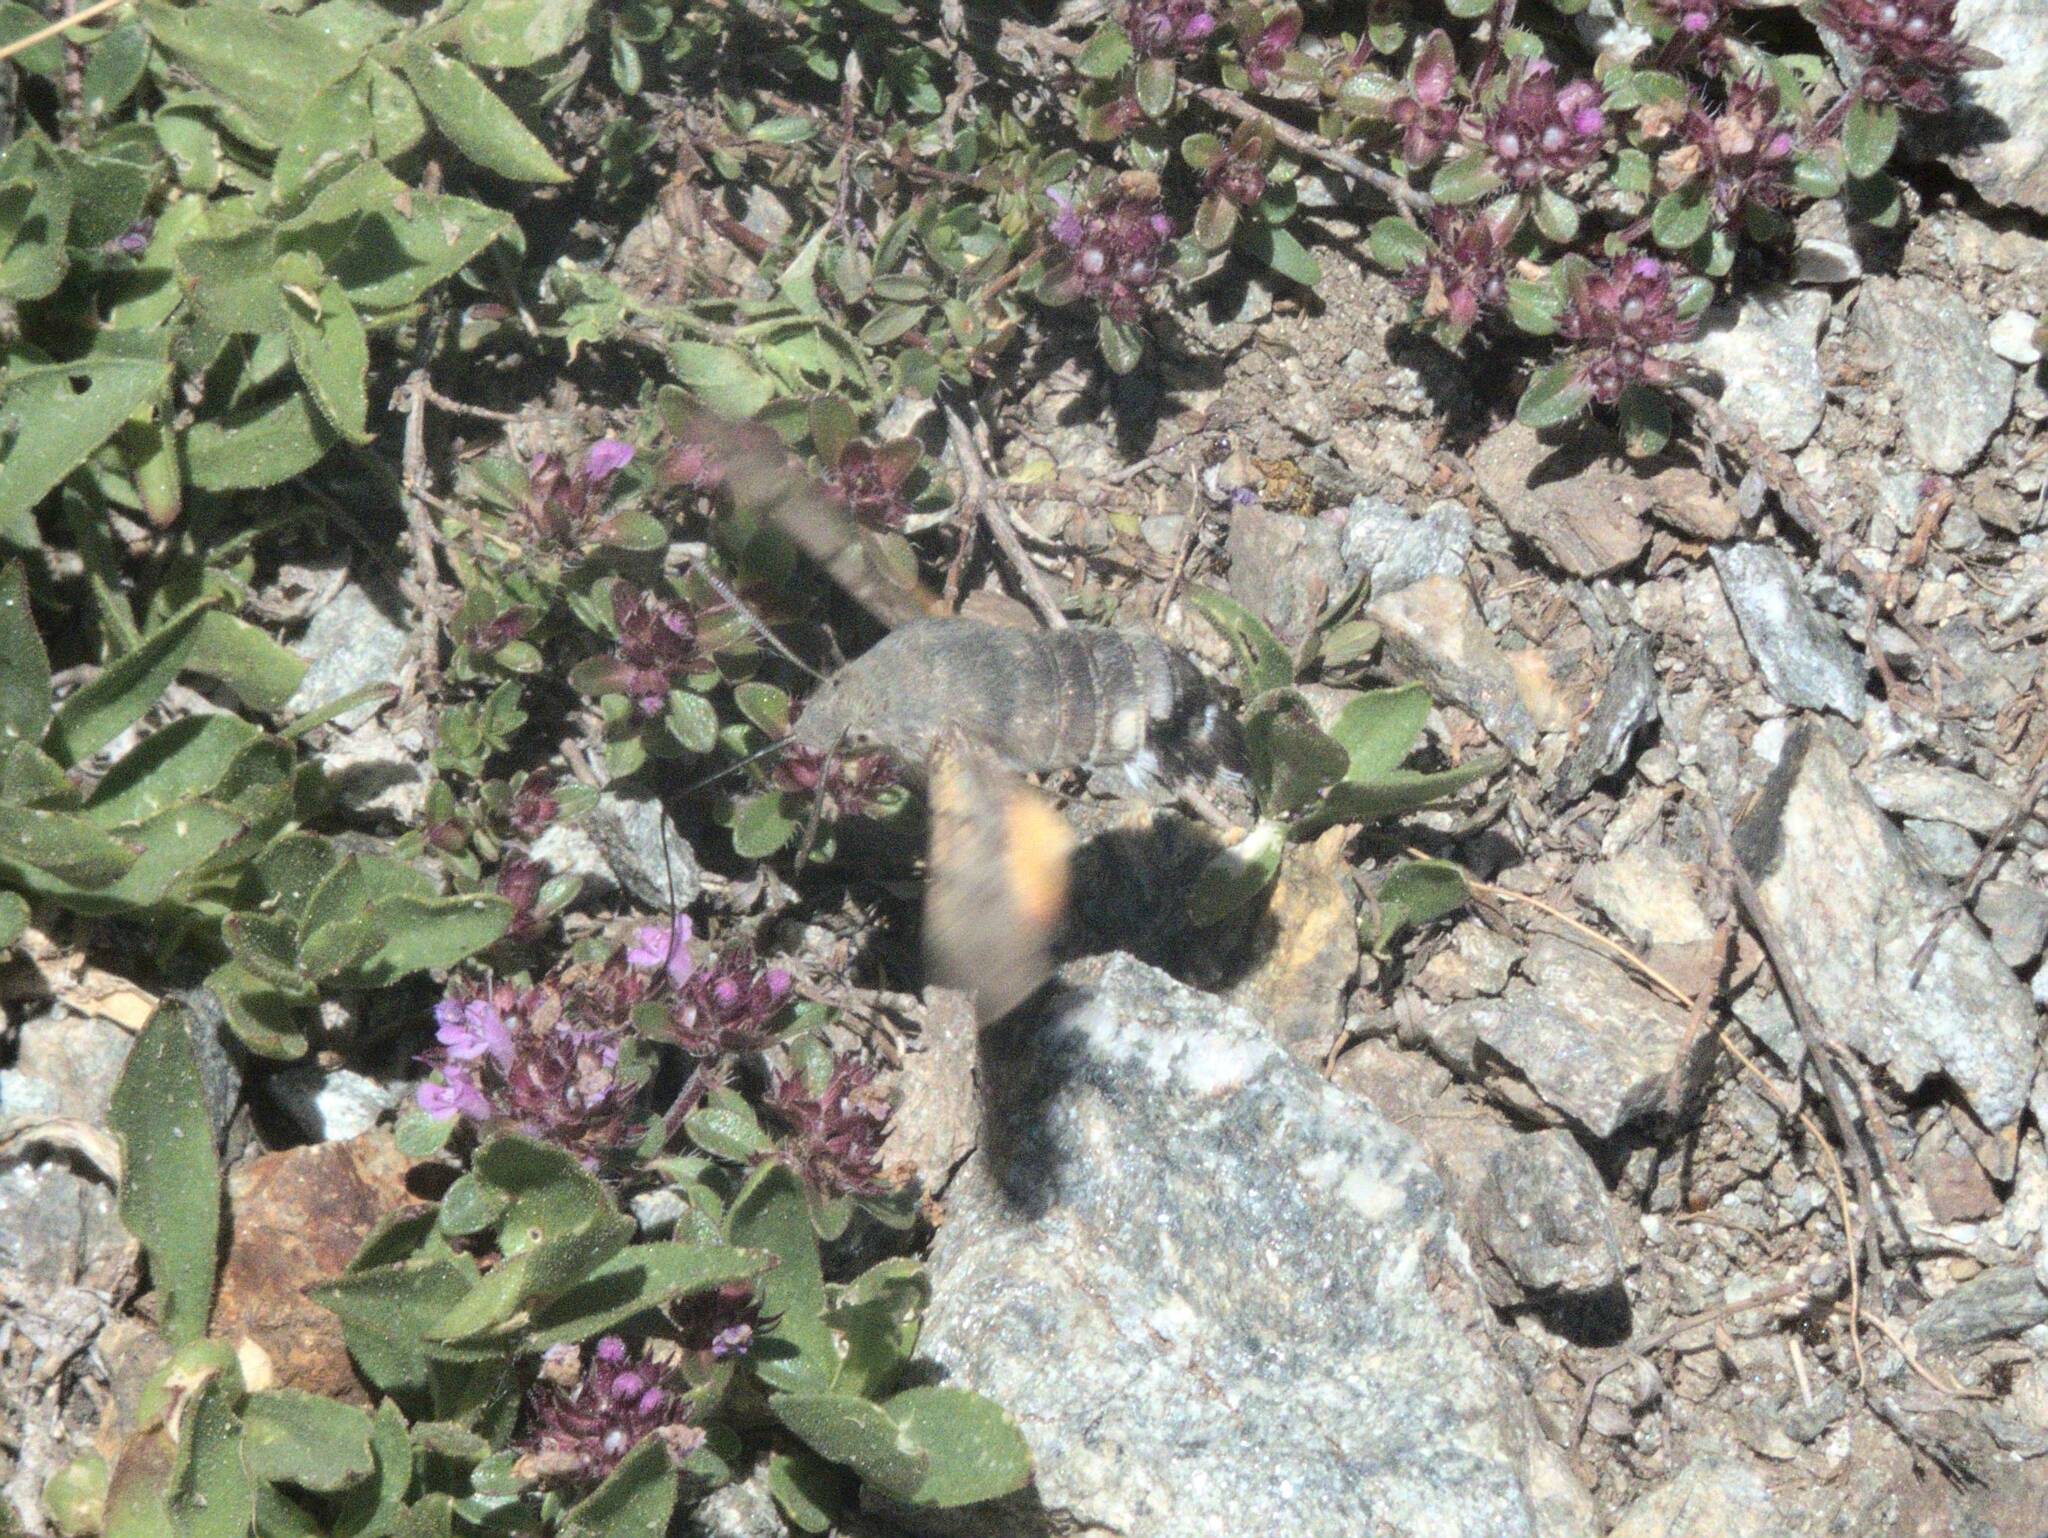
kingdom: Animalia
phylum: Arthropoda
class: Insecta
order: Lepidoptera
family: Sphingidae
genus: Macroglossum
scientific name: Macroglossum stellatarum
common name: Humming-bird hawk-moth
